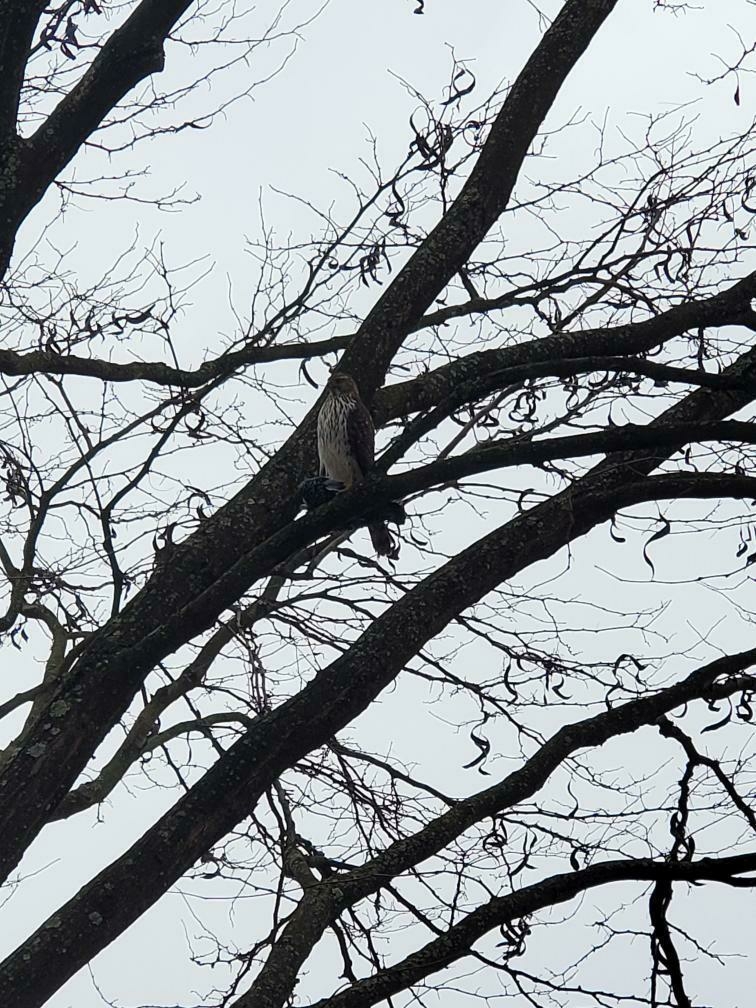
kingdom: Animalia
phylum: Chordata
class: Aves
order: Accipitriformes
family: Accipitridae
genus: Accipiter
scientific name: Accipiter cooperii
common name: Cooper's hawk
